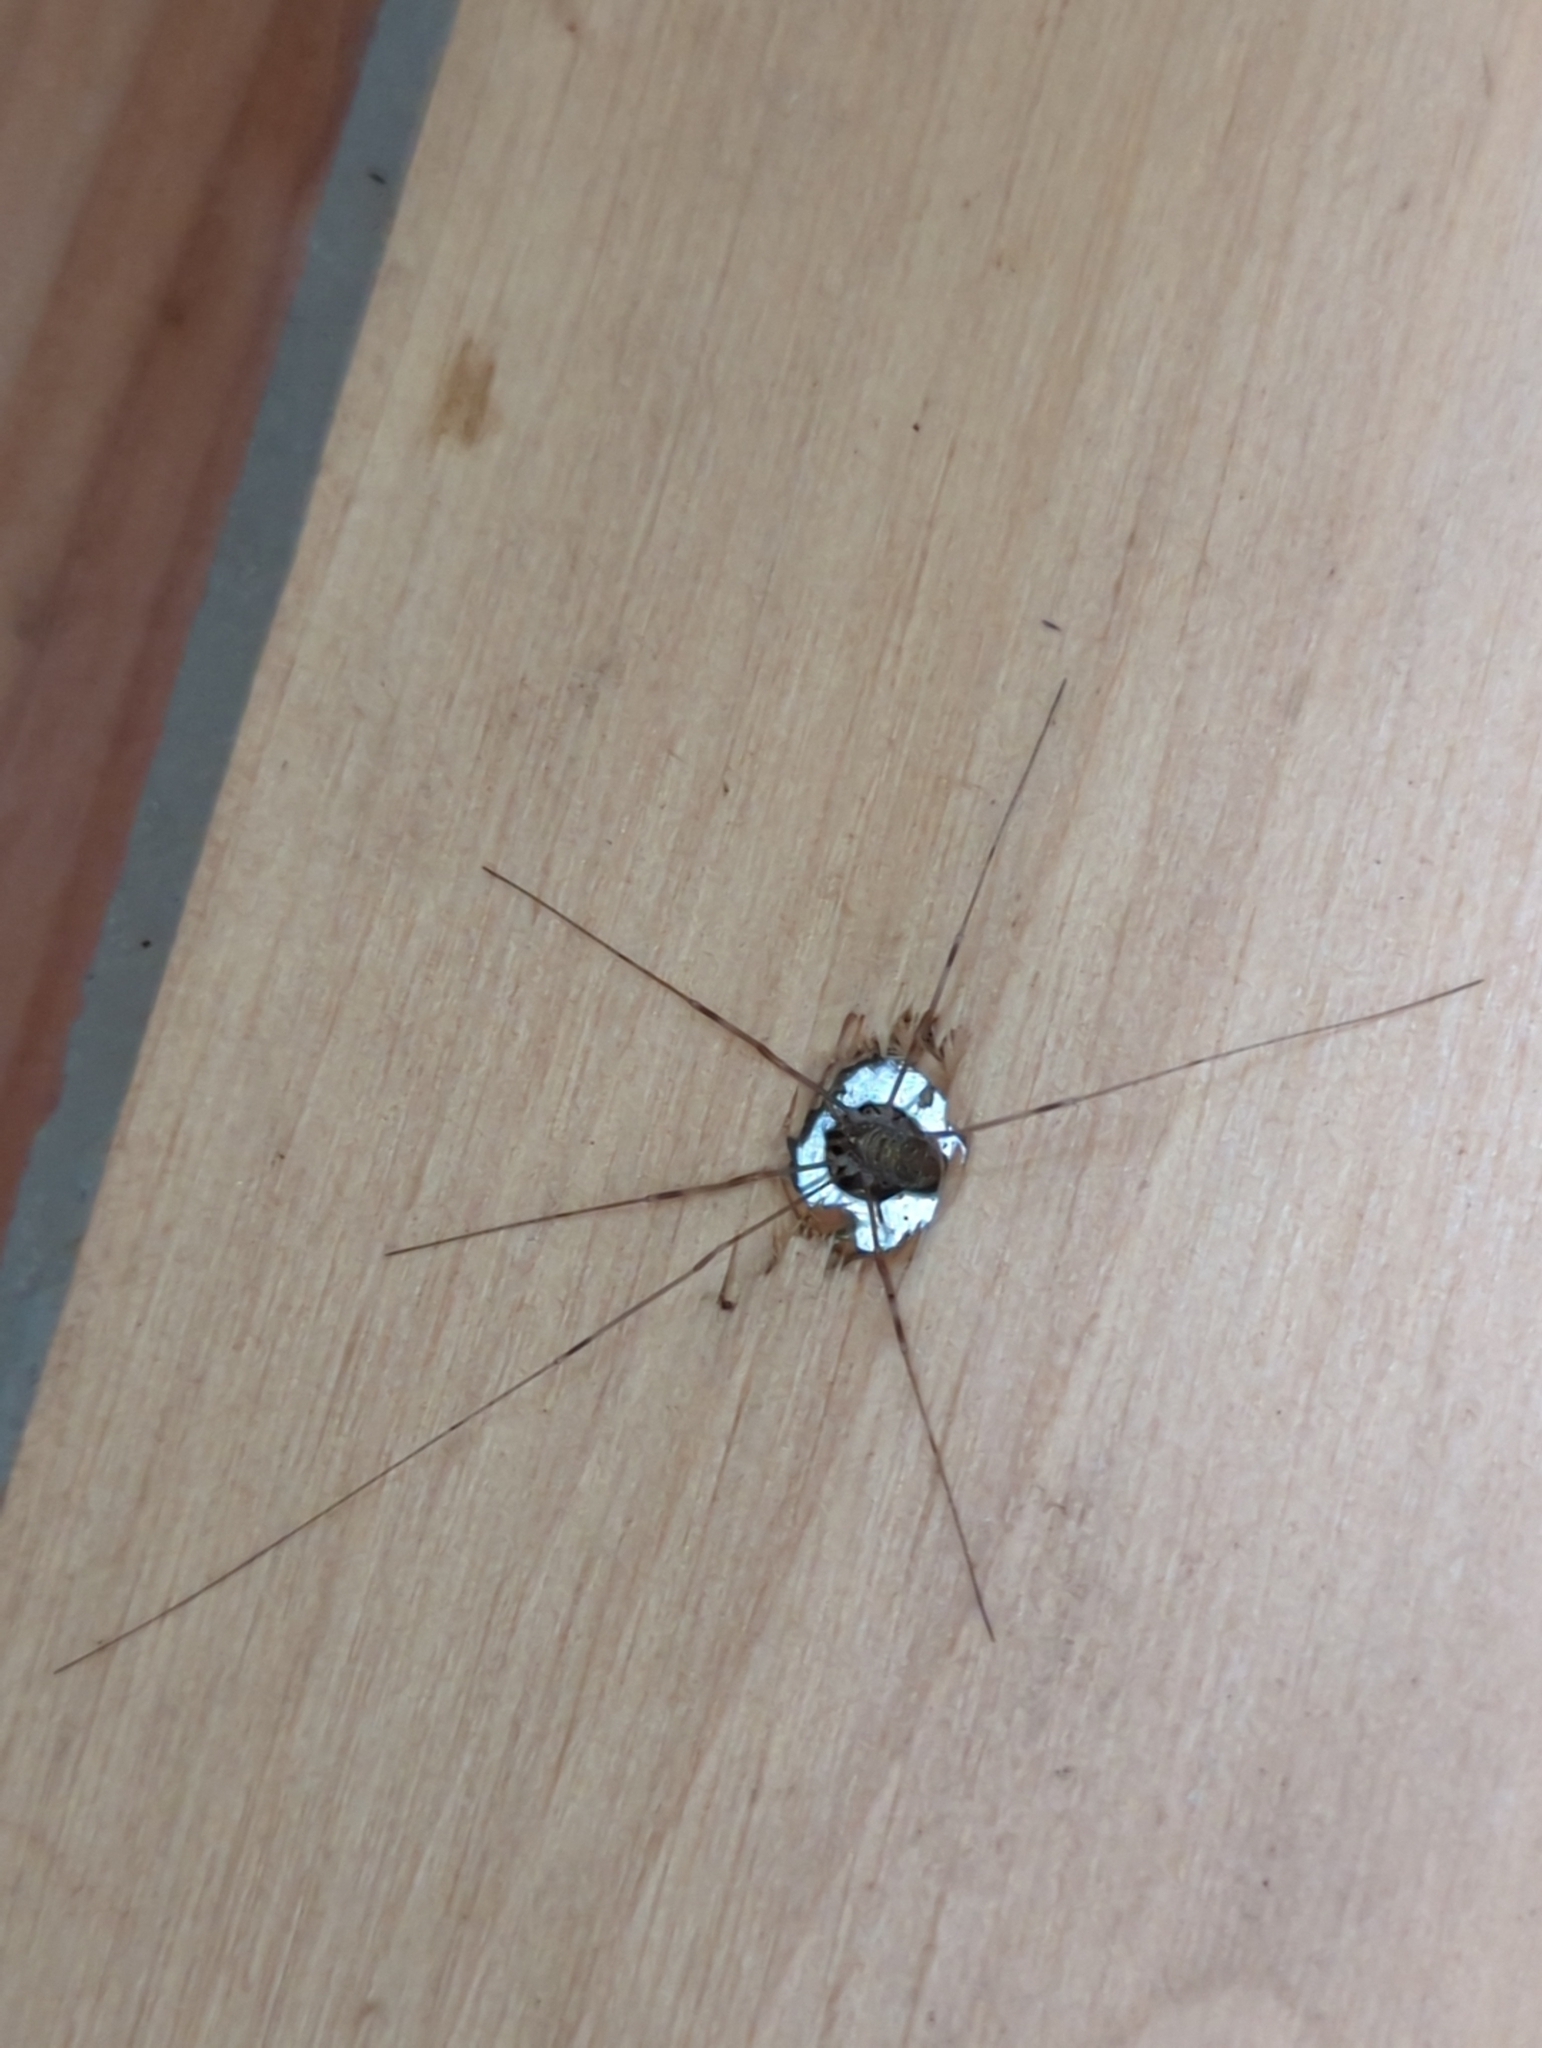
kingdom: Animalia
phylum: Arthropoda
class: Arachnida
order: Opiliones
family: Phalangiidae
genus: Opilio
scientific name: Opilio canestrinii
